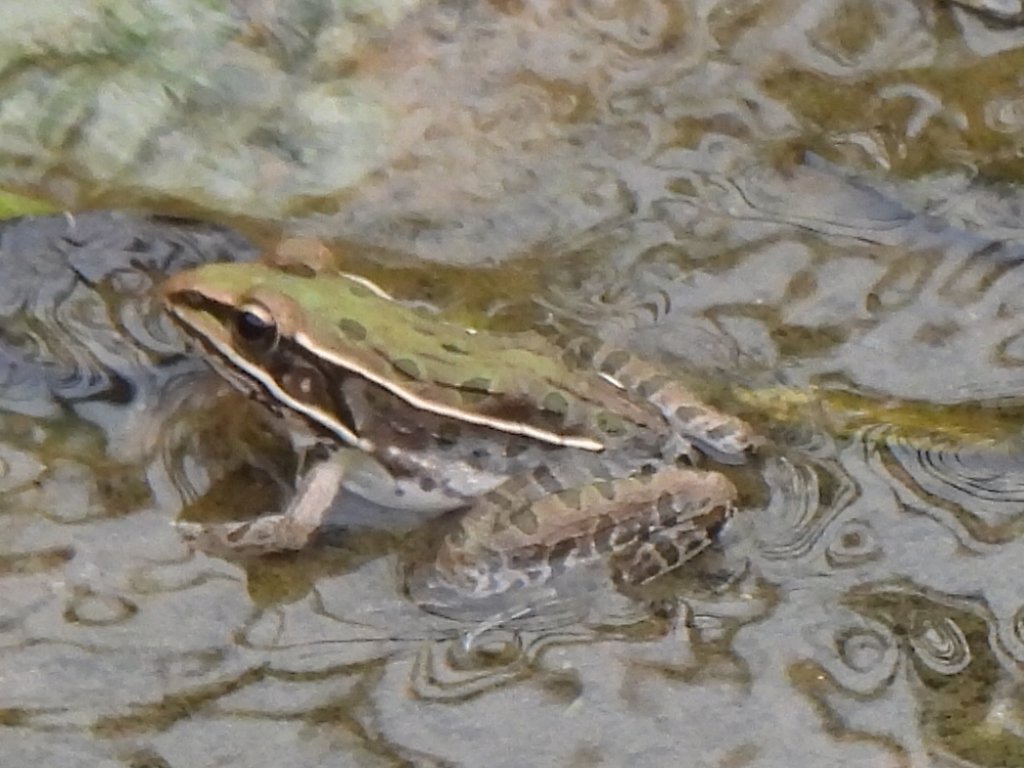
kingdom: Animalia
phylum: Chordata
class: Amphibia
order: Anura
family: Ranidae
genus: Lithobates
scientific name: Lithobates sphenocephalus
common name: Southern leopard frog
